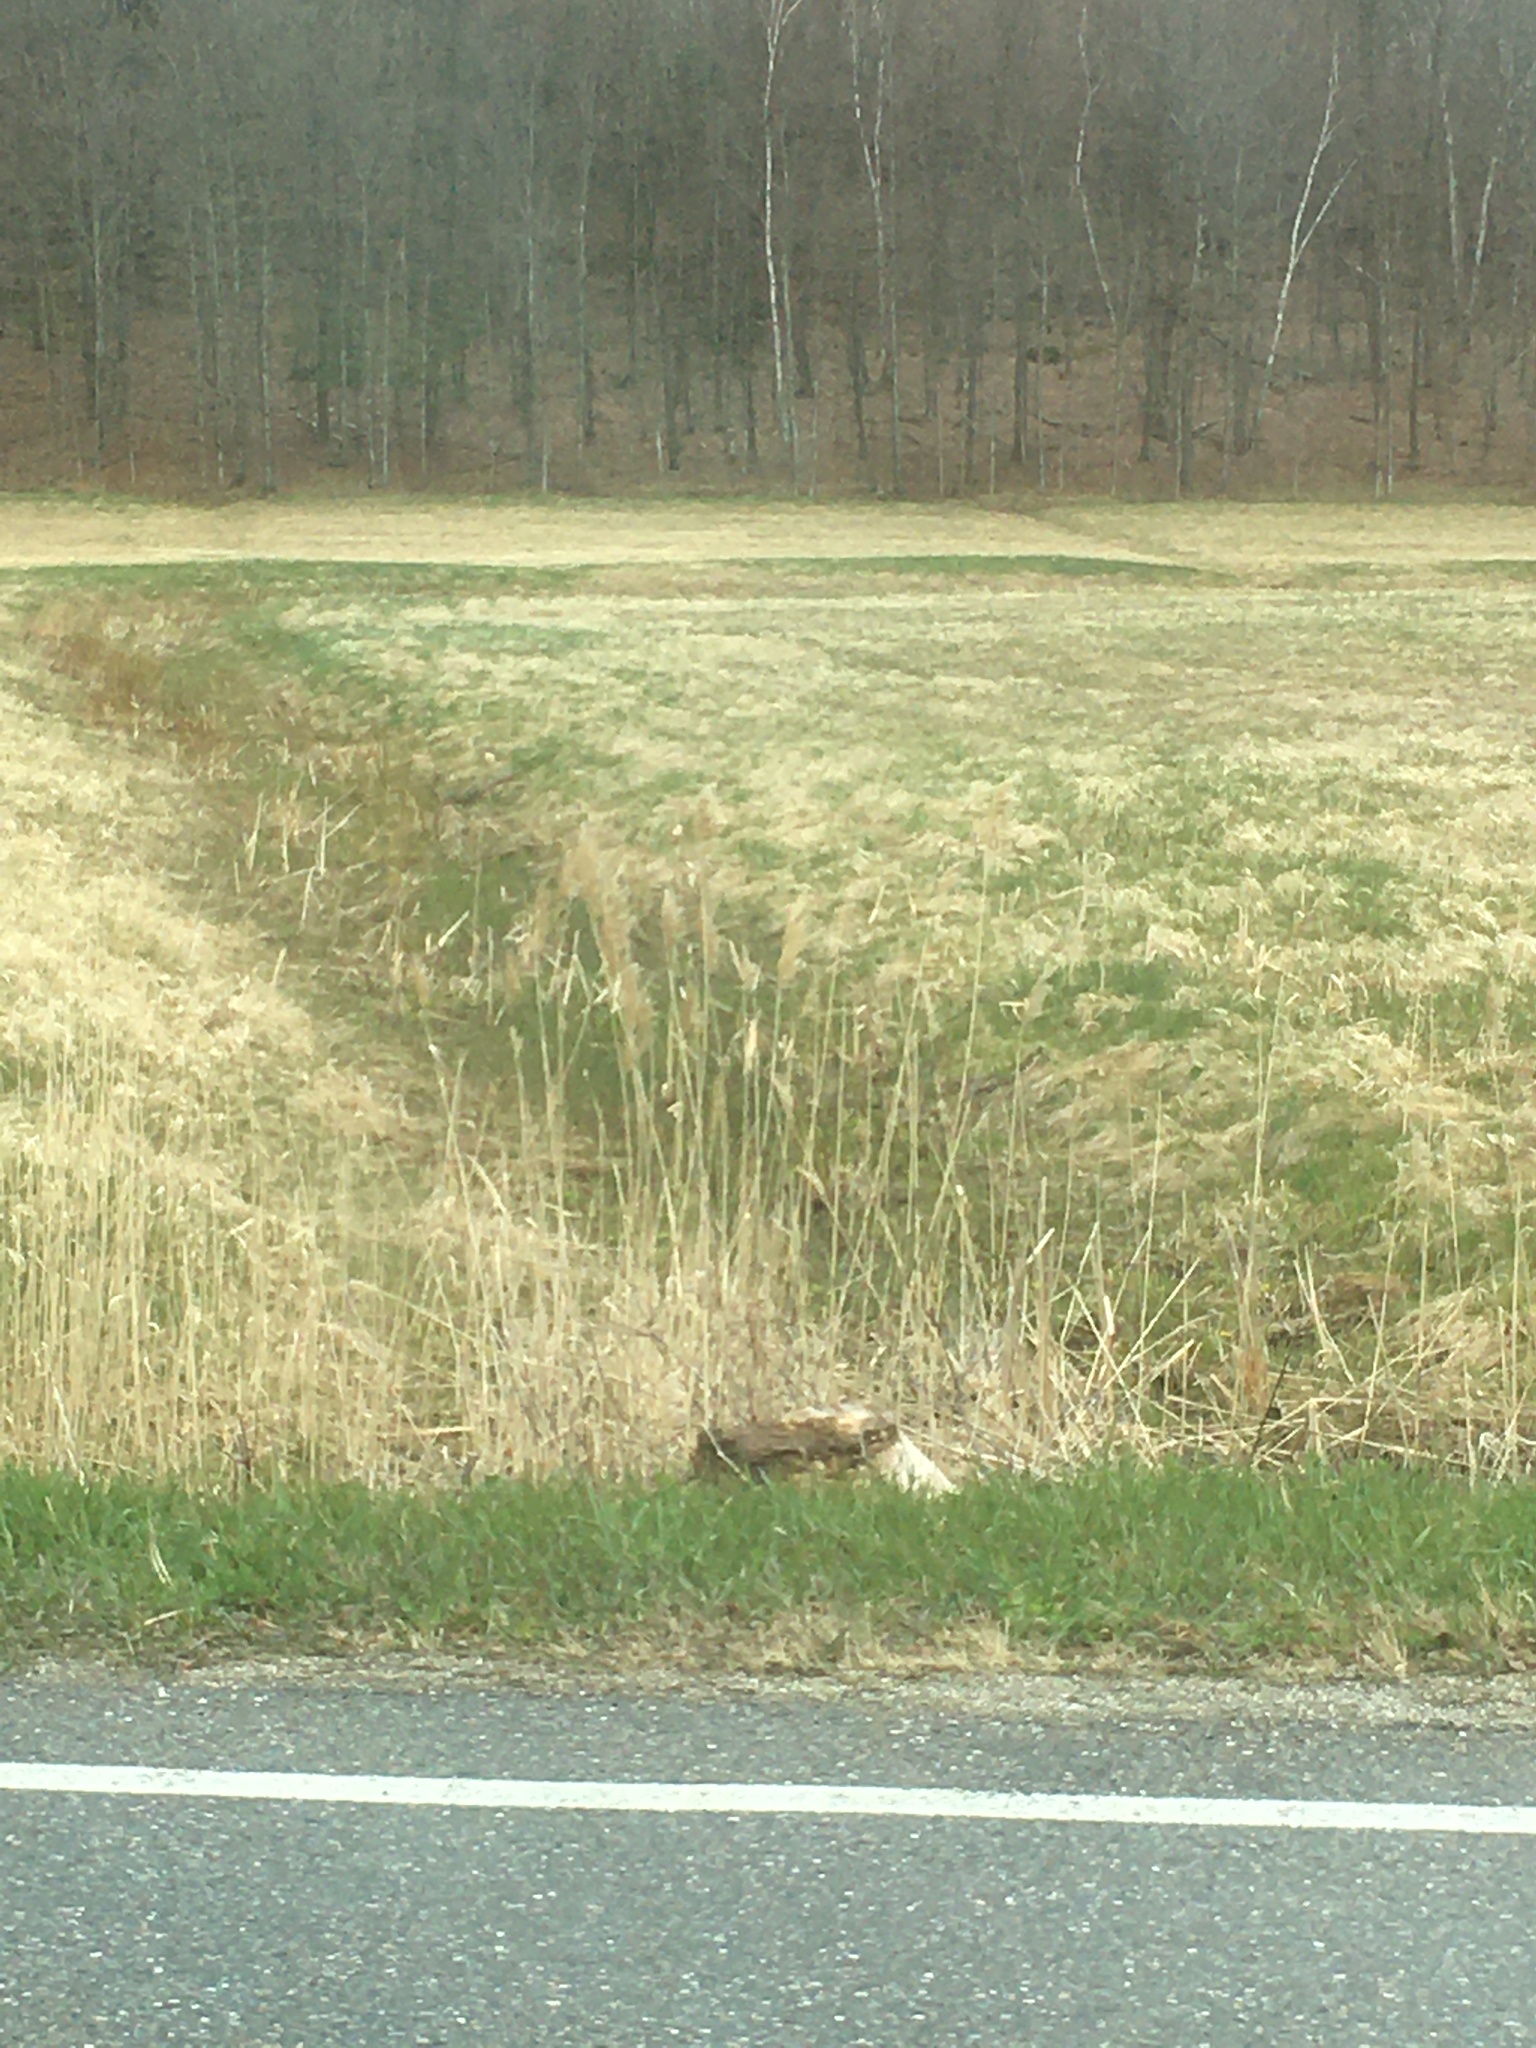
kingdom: Plantae
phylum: Tracheophyta
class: Liliopsida
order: Poales
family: Poaceae
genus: Phragmites
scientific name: Phragmites australis
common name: Common reed
